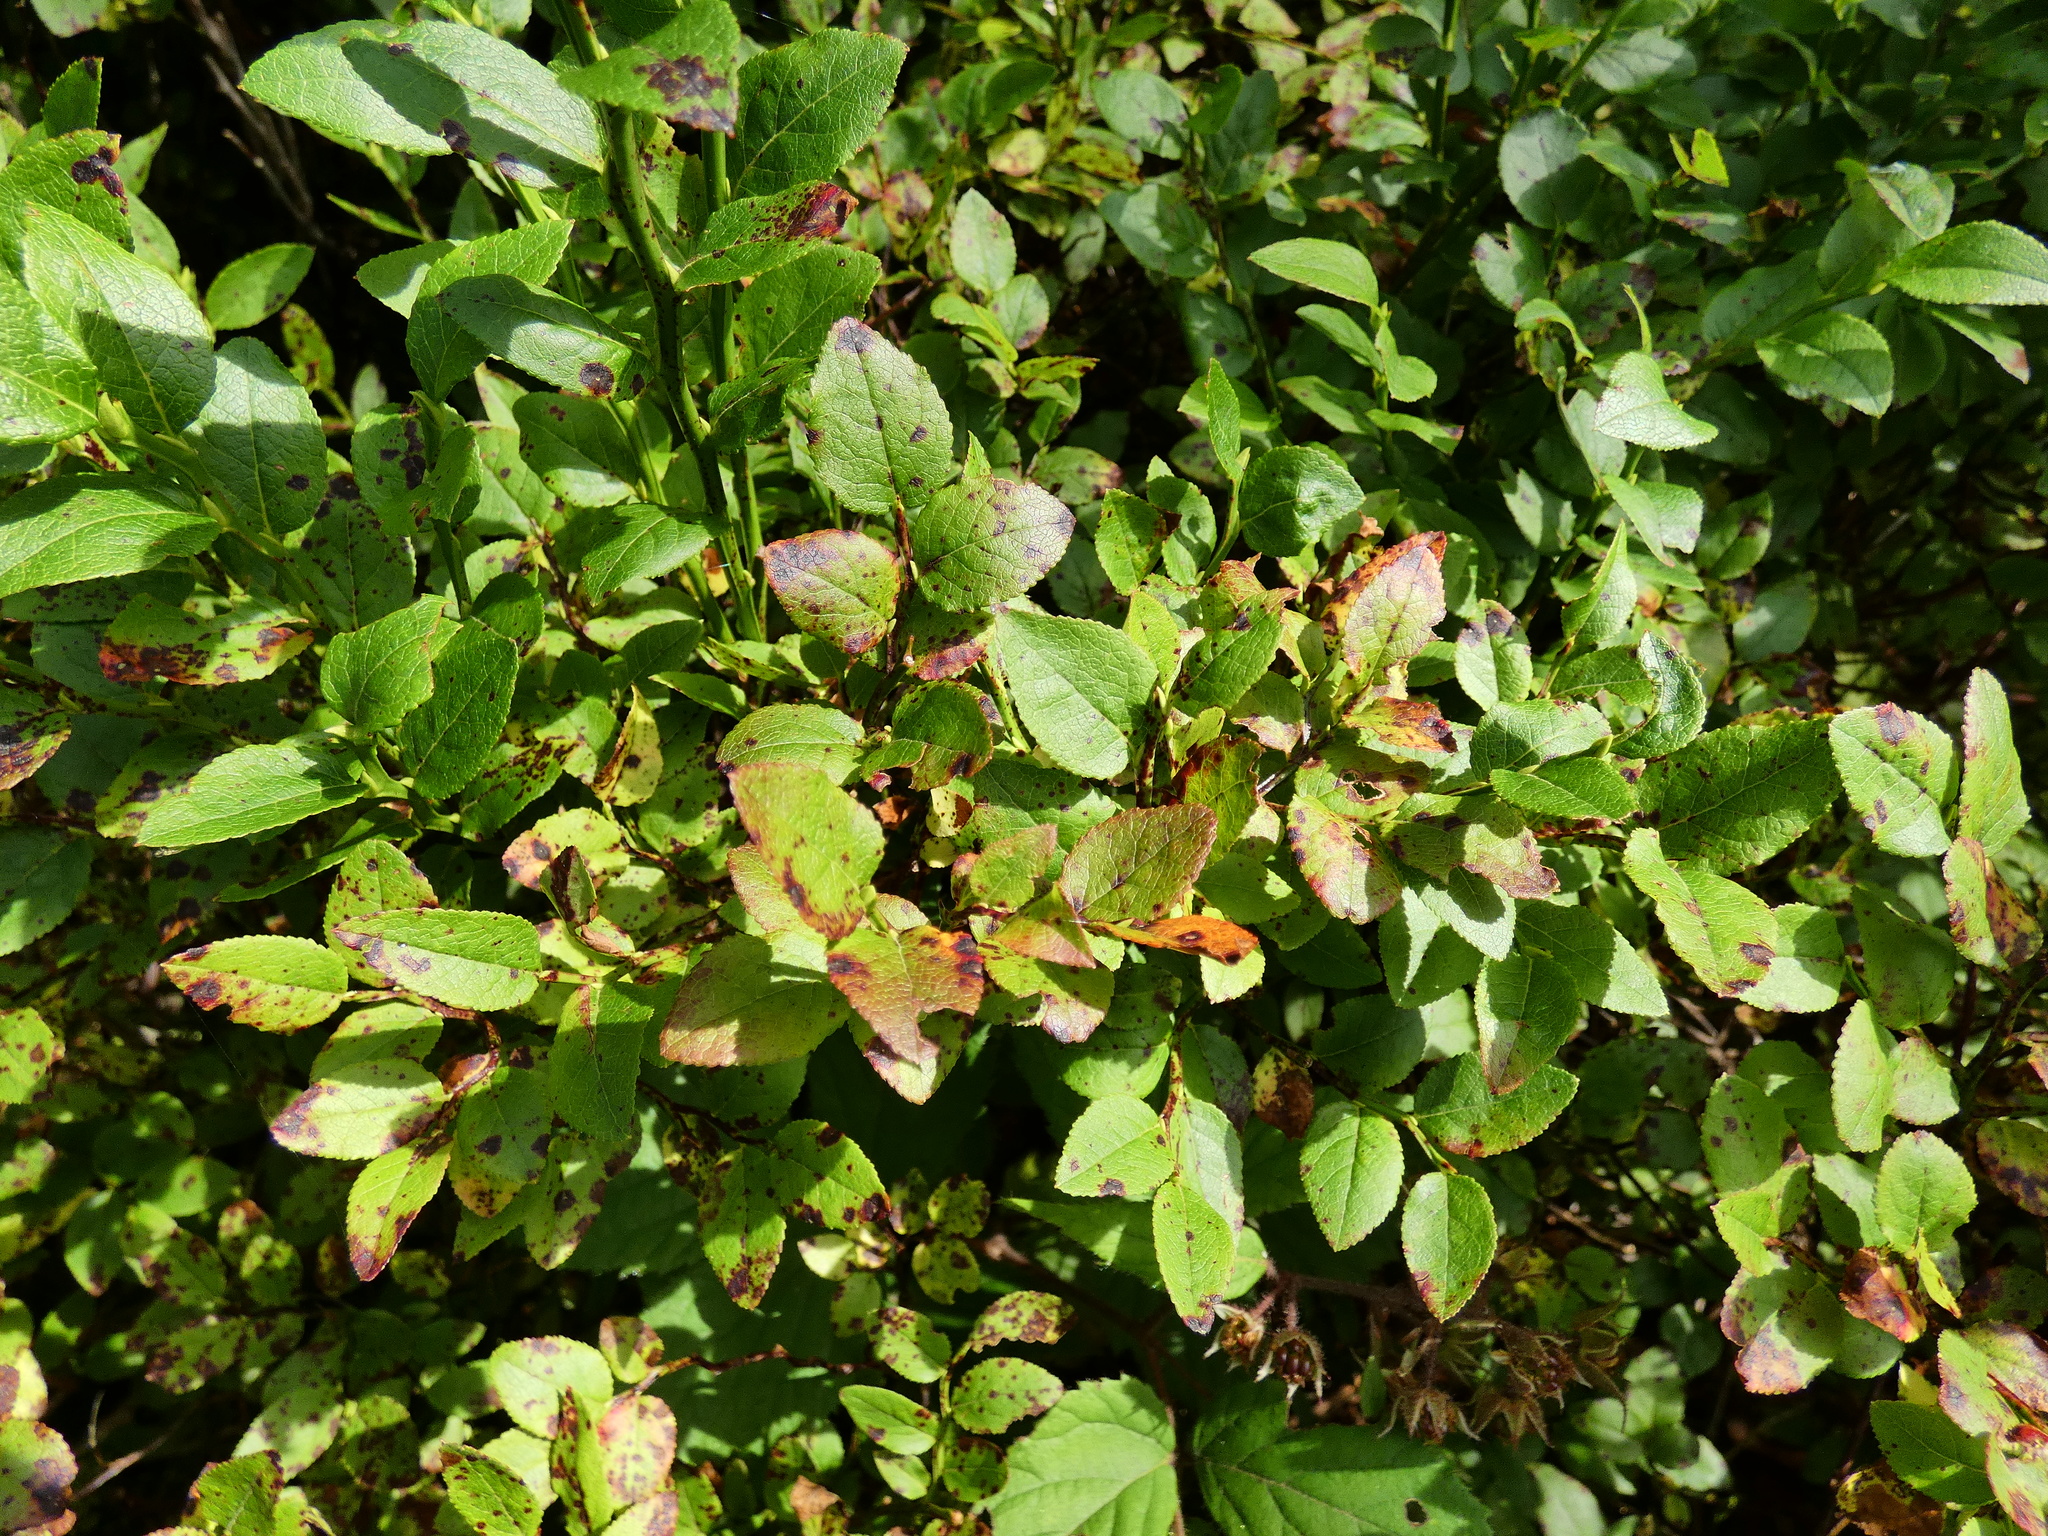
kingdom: Plantae
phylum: Tracheophyta
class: Magnoliopsida
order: Ericales
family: Ericaceae
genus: Vaccinium
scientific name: Vaccinium myrtillus
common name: Bilberry
